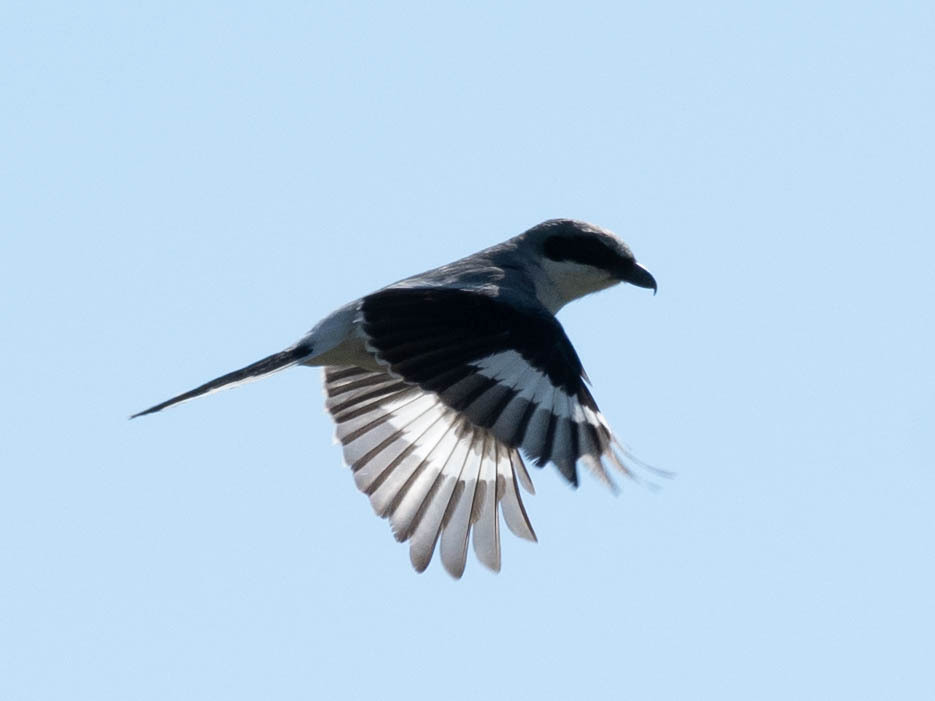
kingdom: Animalia
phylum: Chordata
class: Aves
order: Passeriformes
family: Laniidae
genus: Lanius
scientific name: Lanius ludovicianus
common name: Loggerhead shrike
